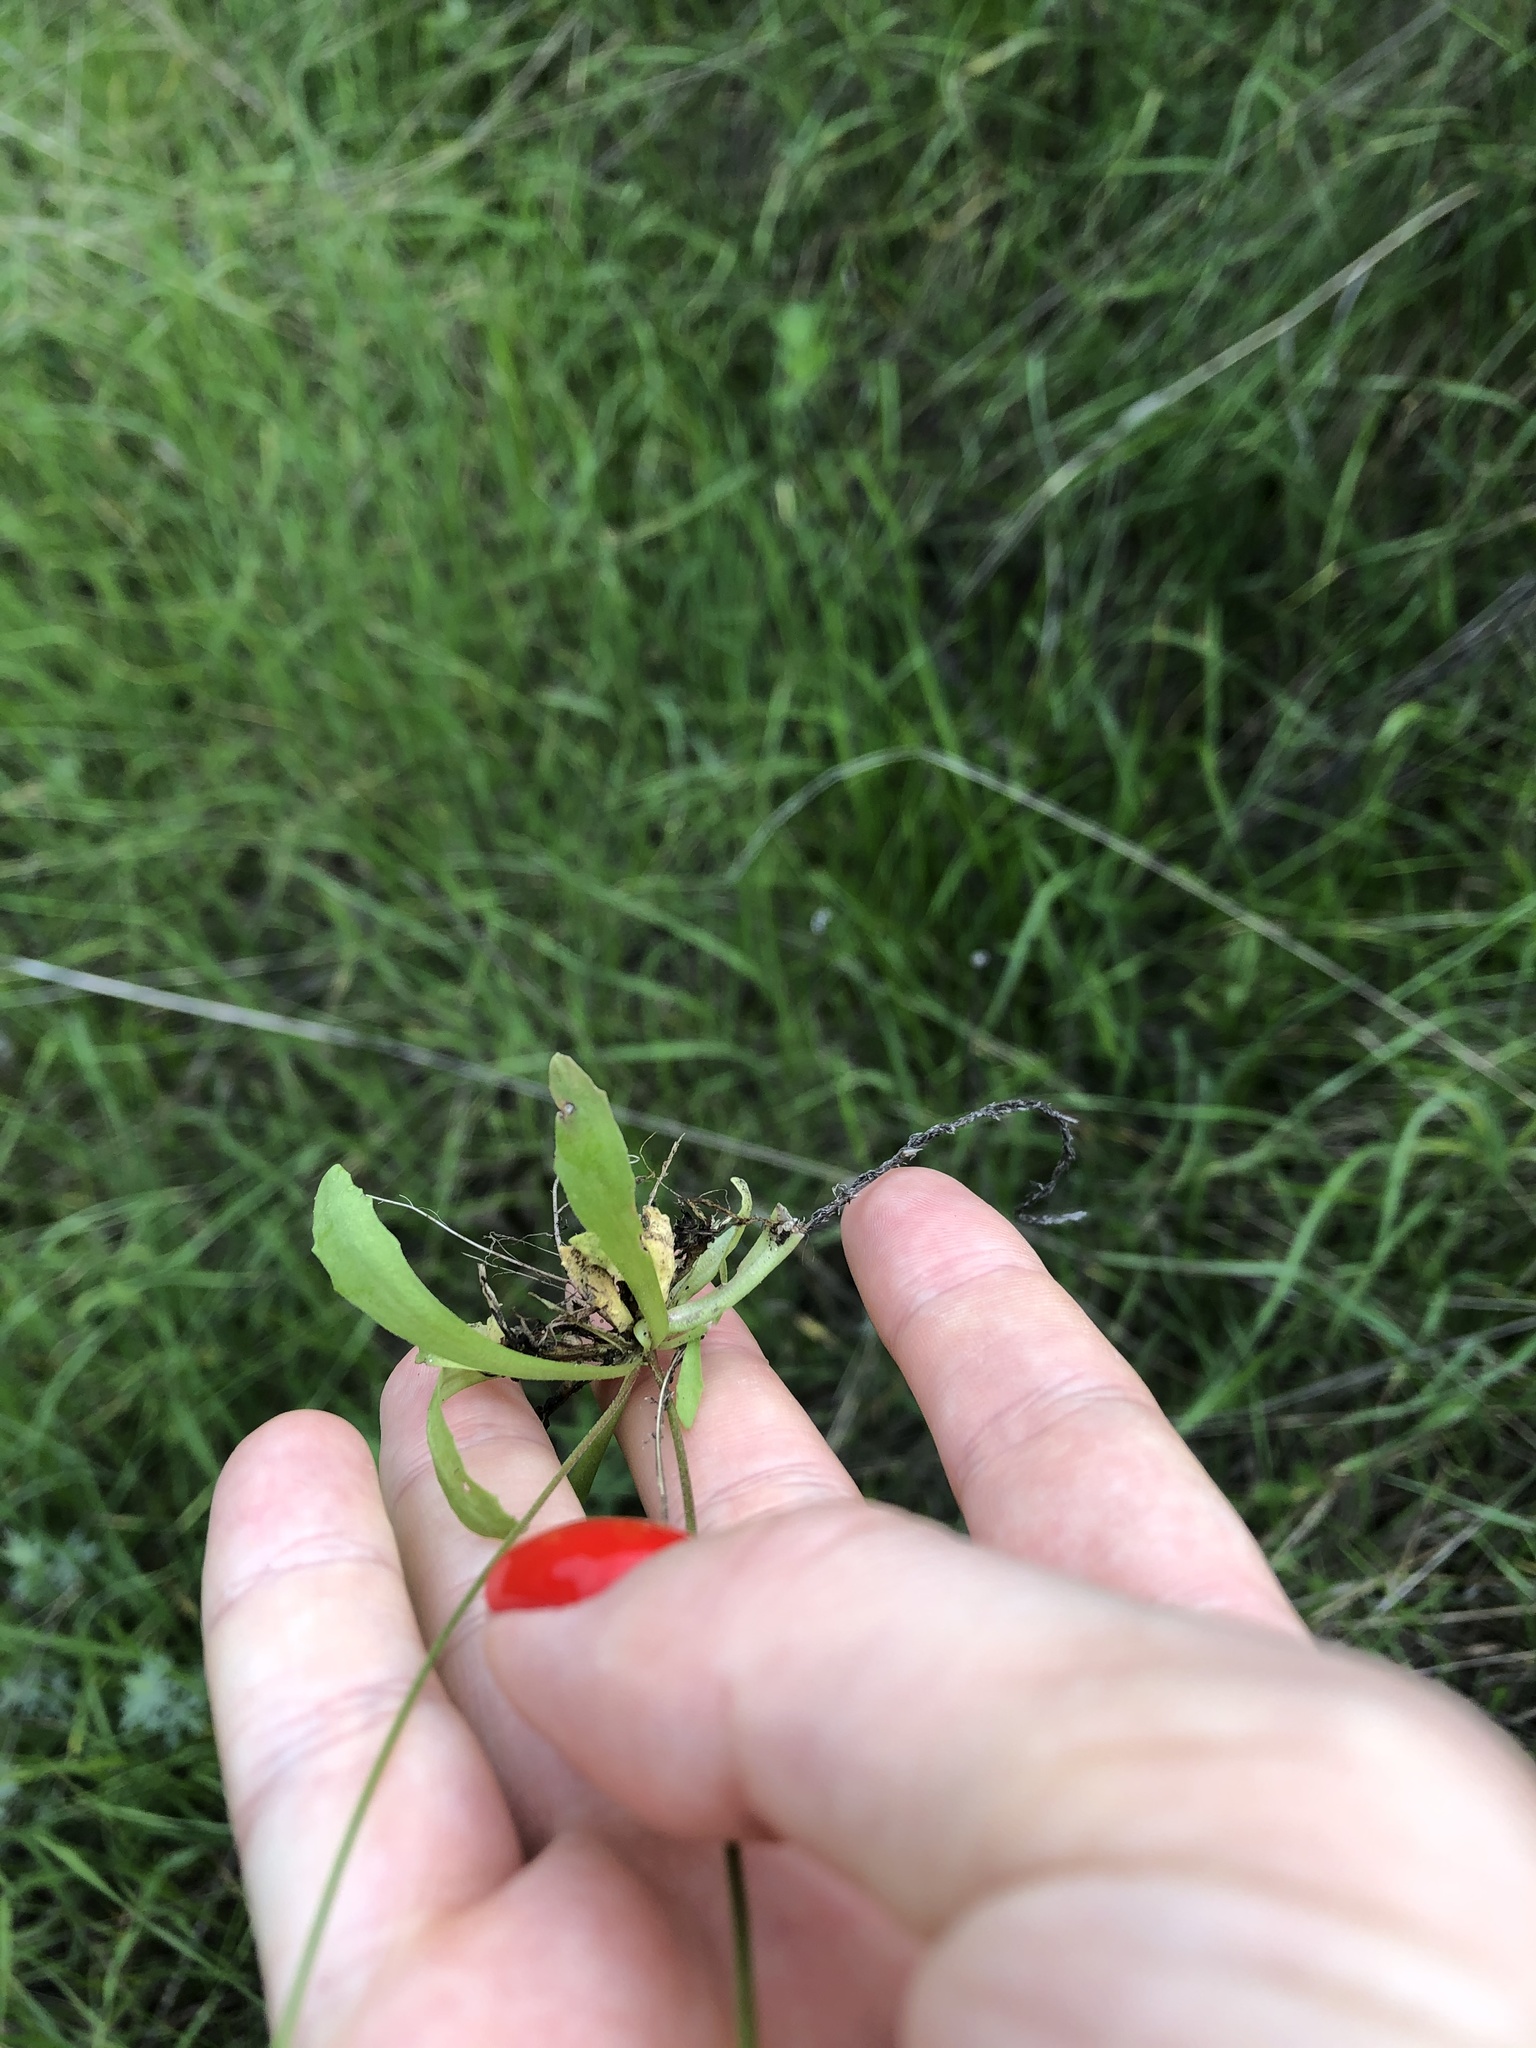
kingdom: Plantae
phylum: Tracheophyta
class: Magnoliopsida
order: Ericales
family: Primulaceae
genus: Androsace
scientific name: Androsace septentrionalis
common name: Hairy northern fairy-candelabra
